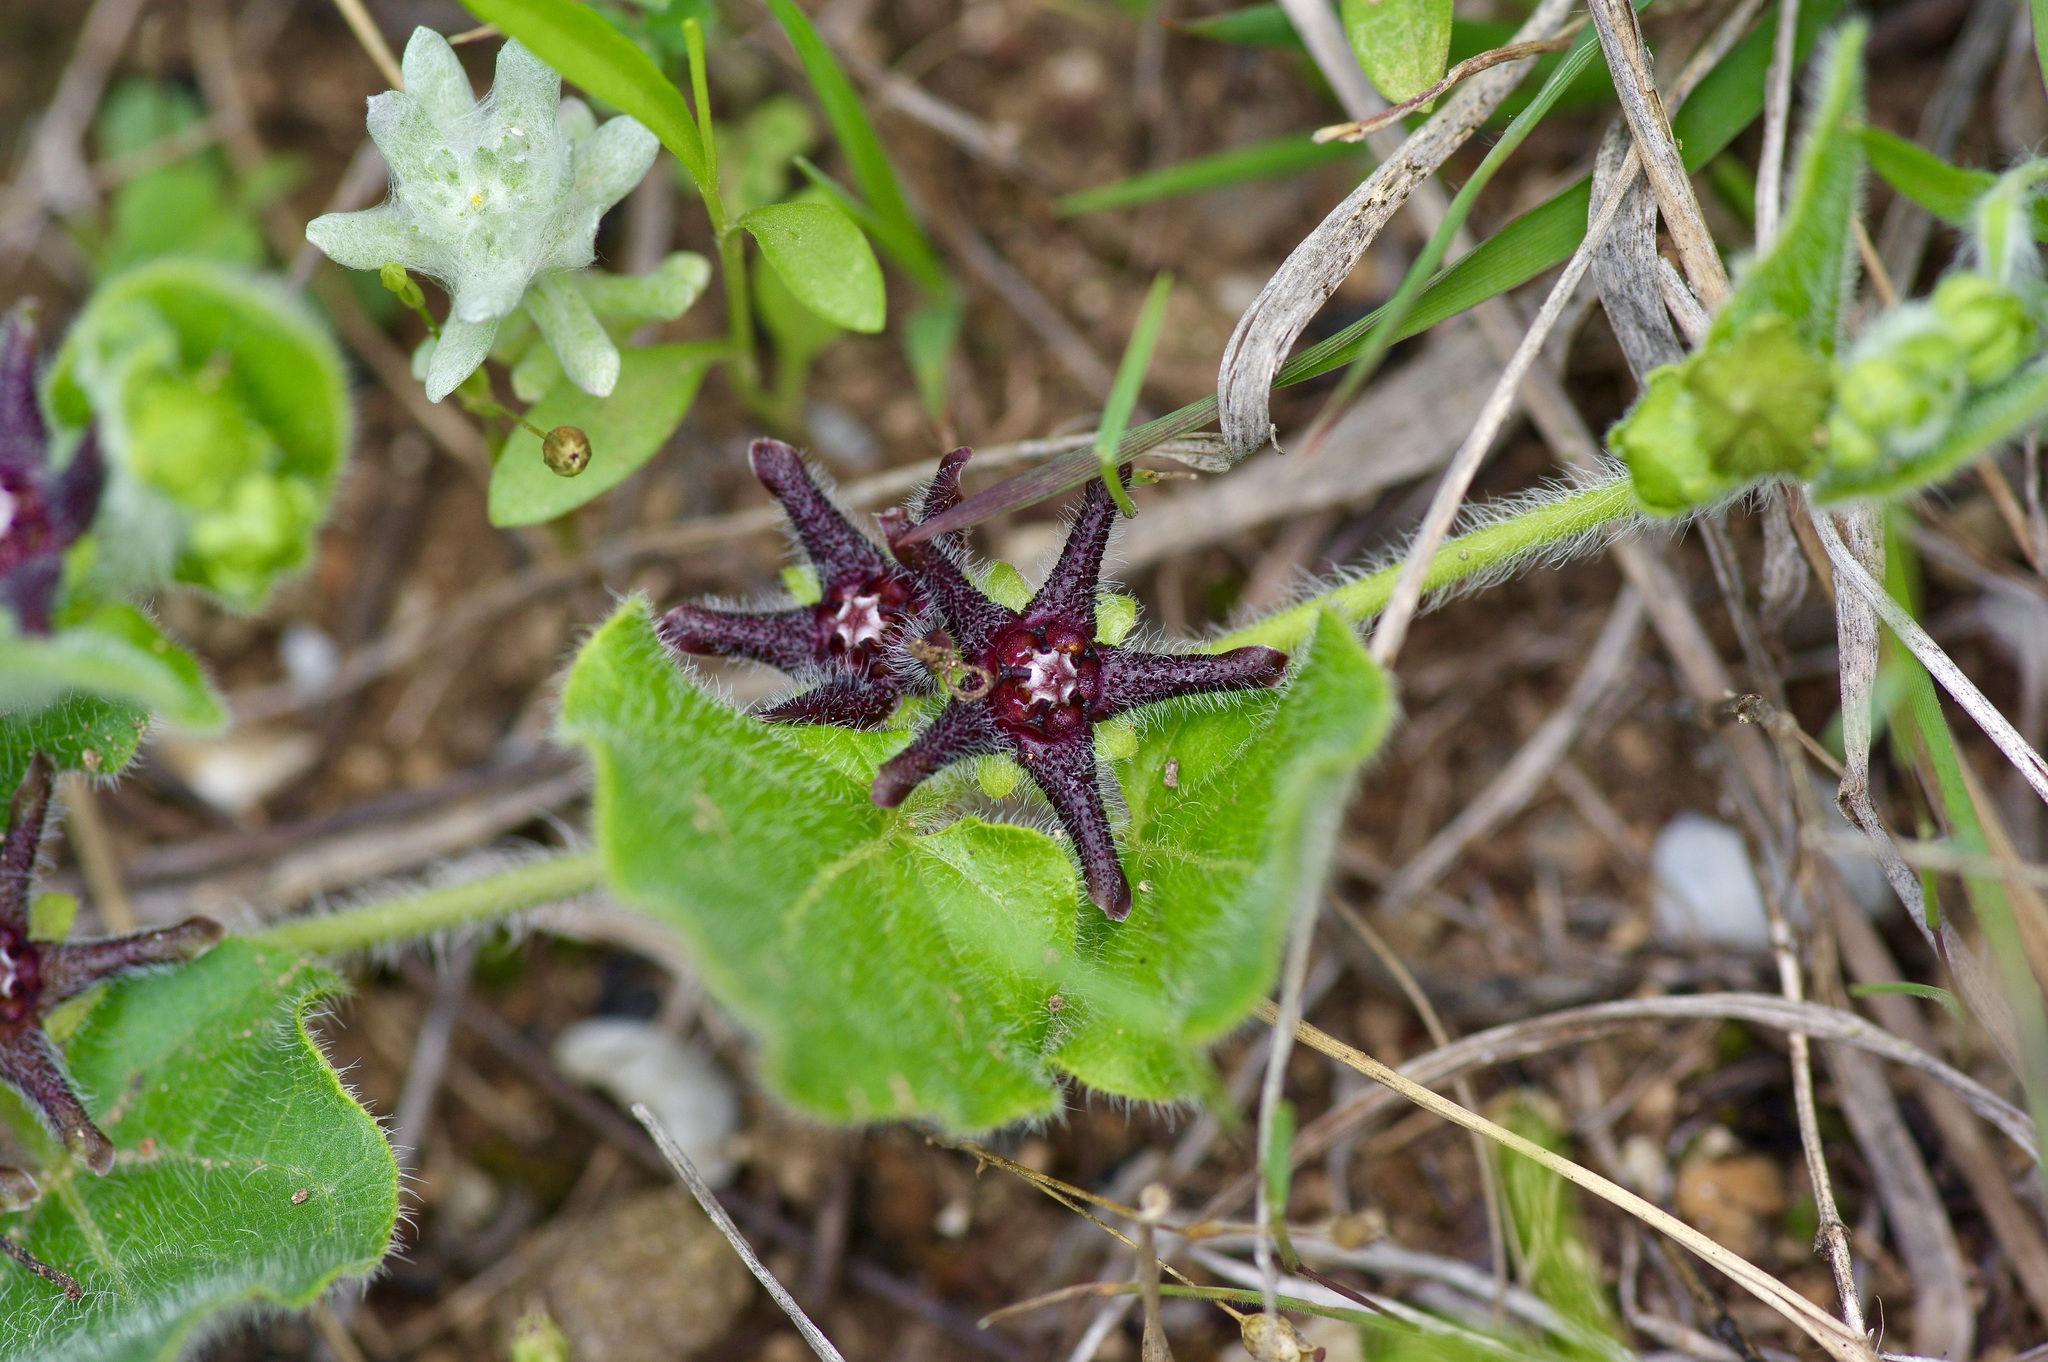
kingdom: Plantae
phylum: Tracheophyta
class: Magnoliopsida
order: Gentianales
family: Apocynaceae
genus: Chthamalia
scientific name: Chthamalia biflora
